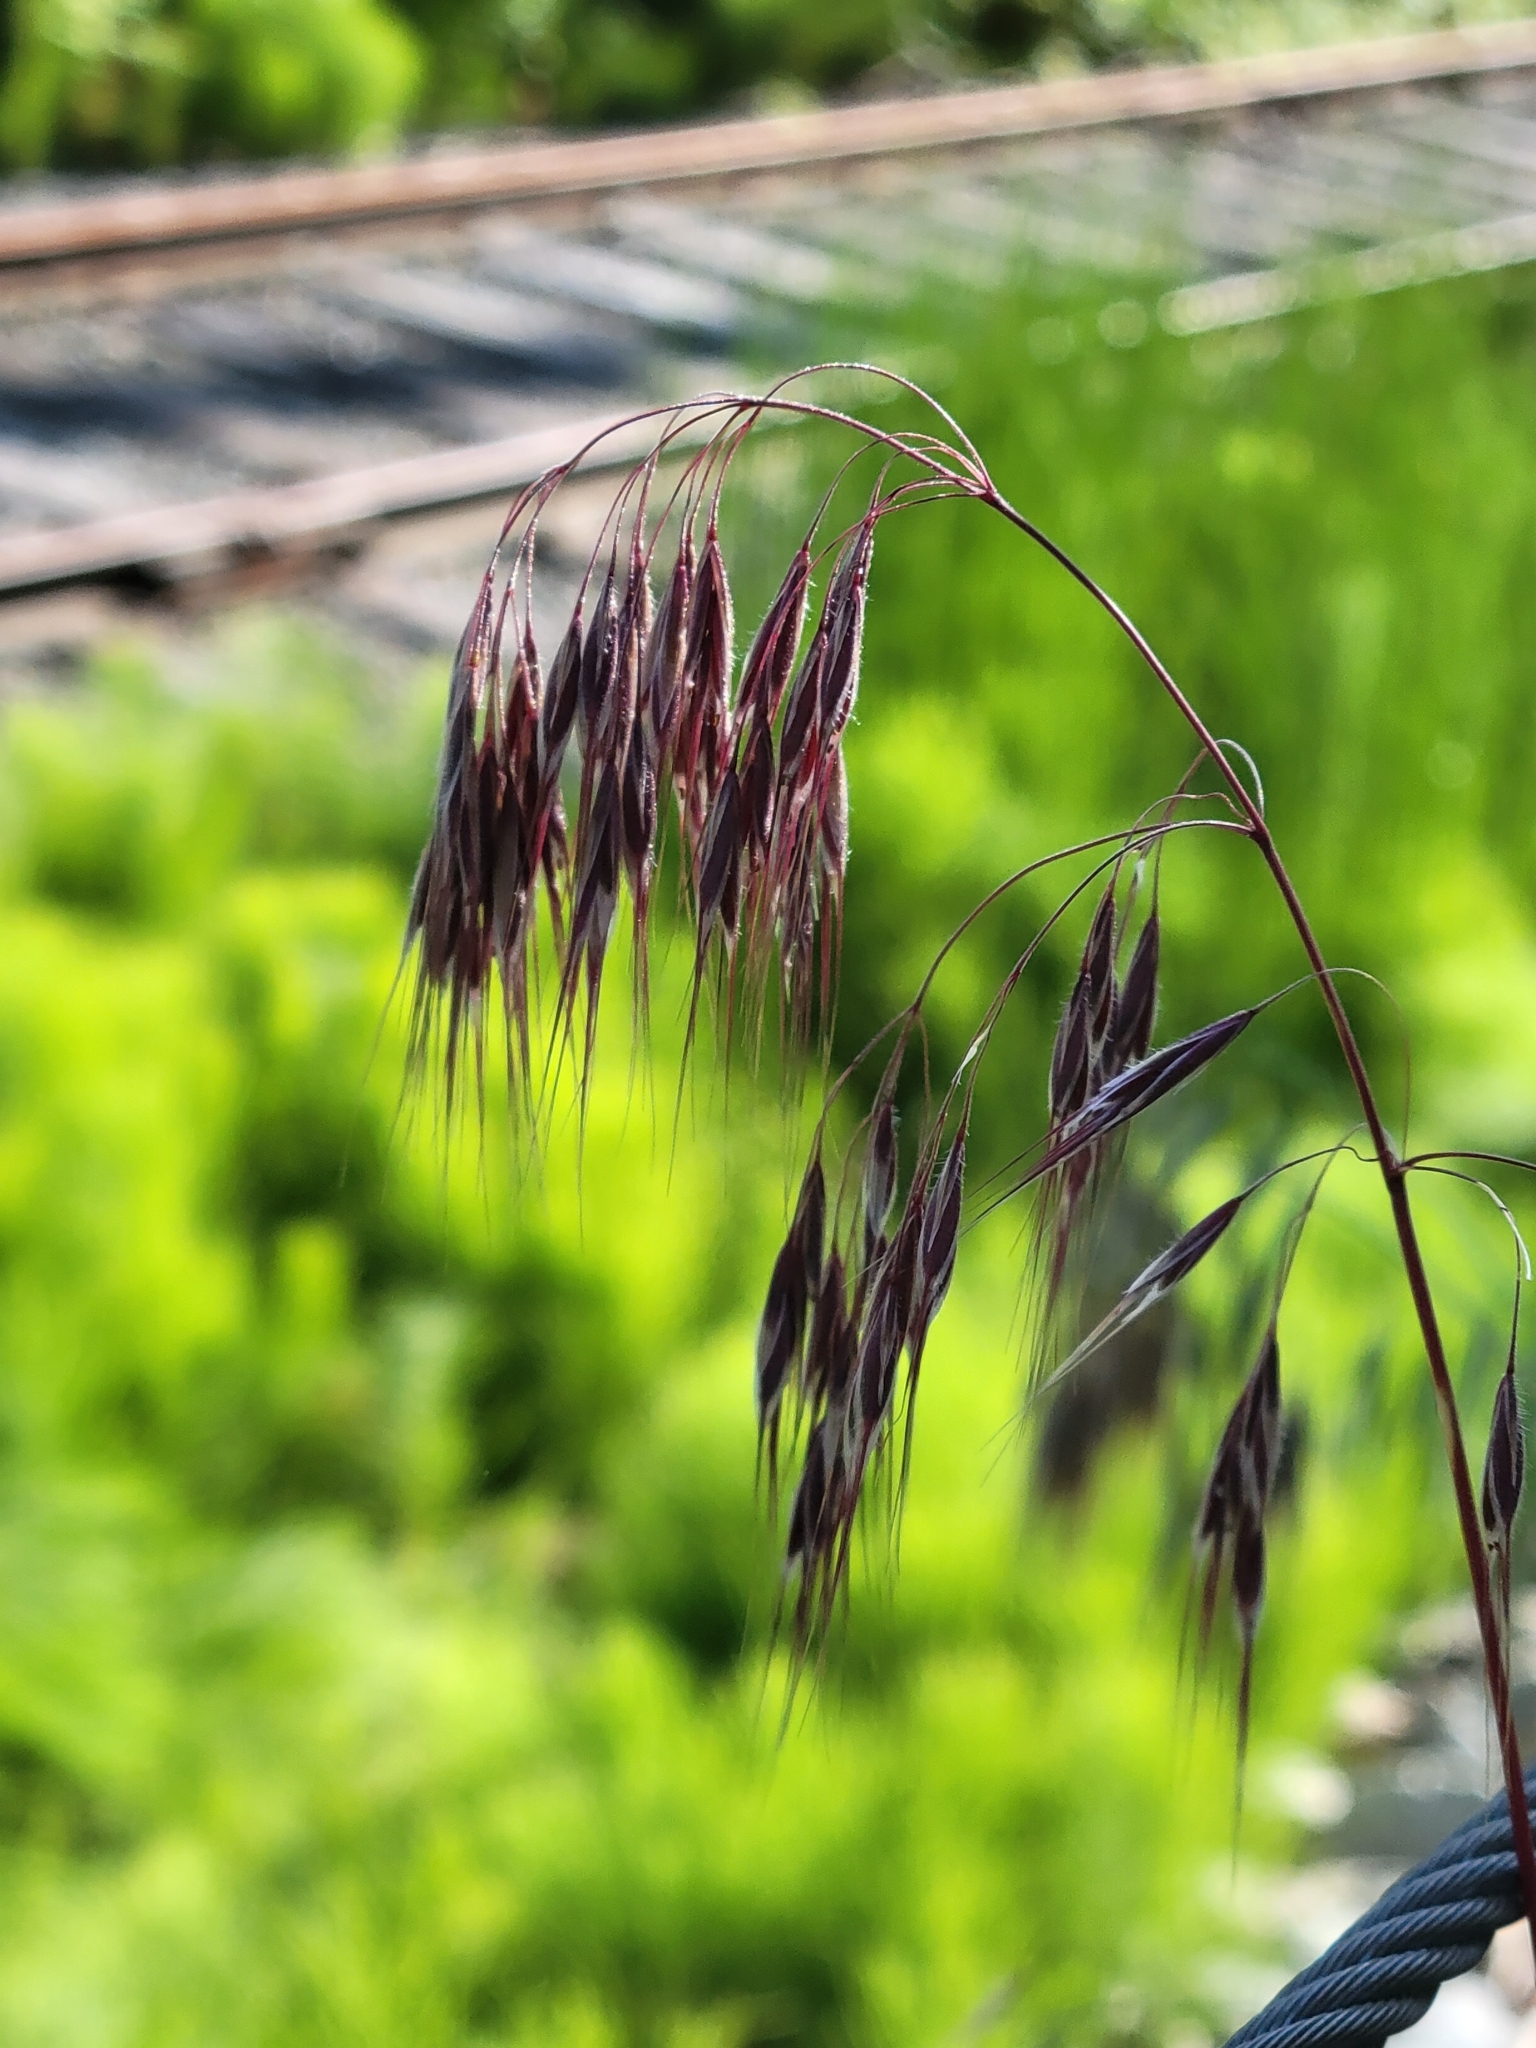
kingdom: Plantae
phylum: Tracheophyta
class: Liliopsida
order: Poales
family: Poaceae
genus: Bromus
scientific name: Bromus tectorum
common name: Cheatgrass
